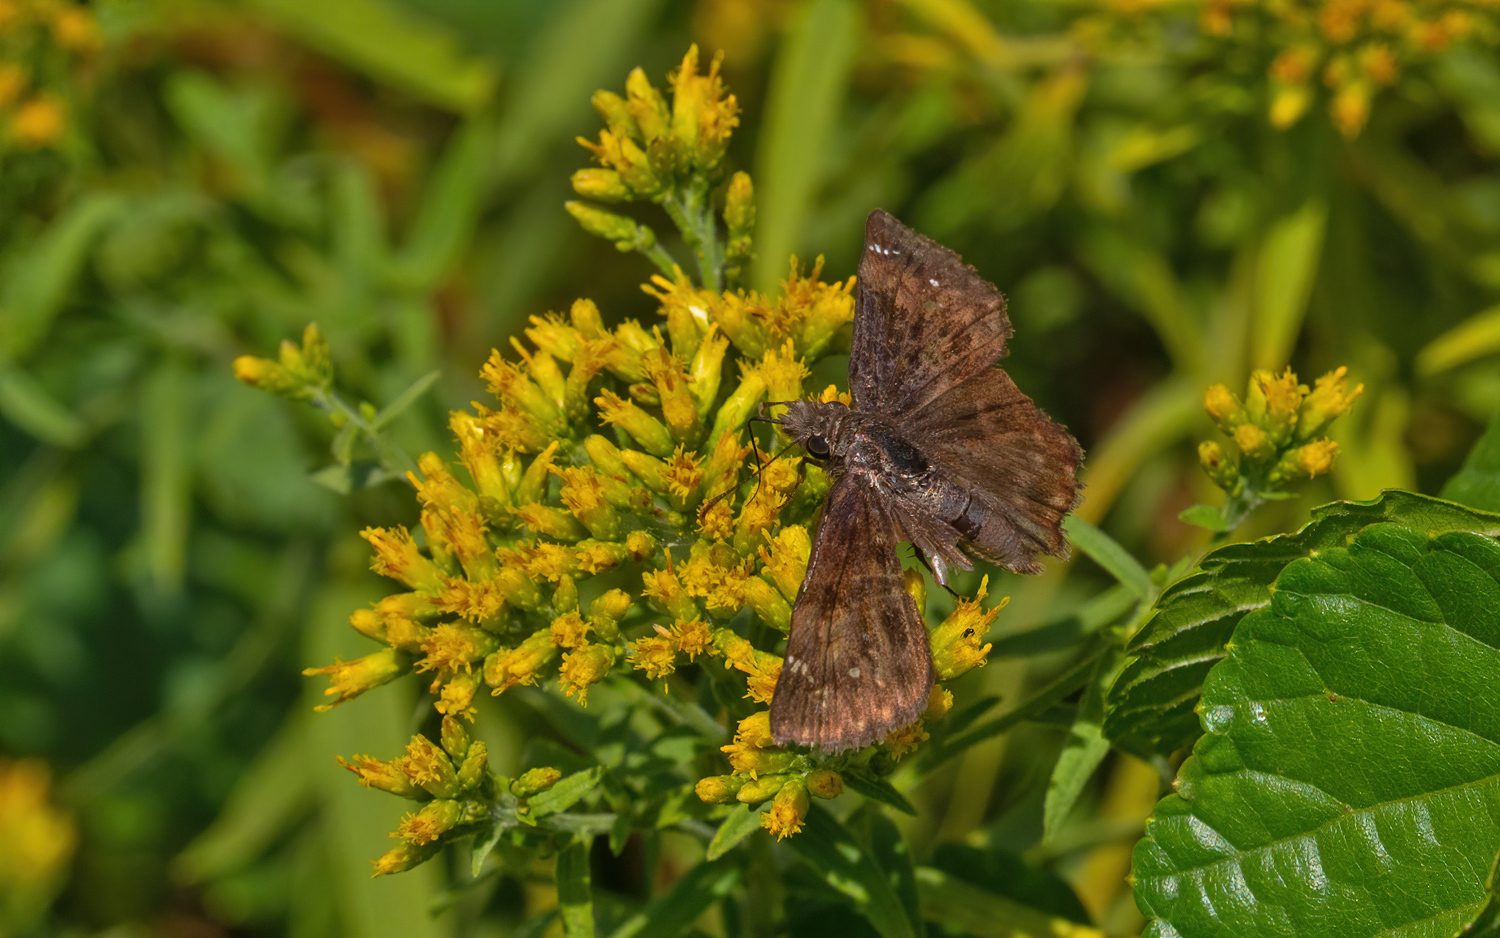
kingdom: Animalia
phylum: Arthropoda
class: Insecta
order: Lepidoptera
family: Hesperiidae
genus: Erynnis
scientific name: Erynnis baptisiae
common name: Wild indigo duskywing
